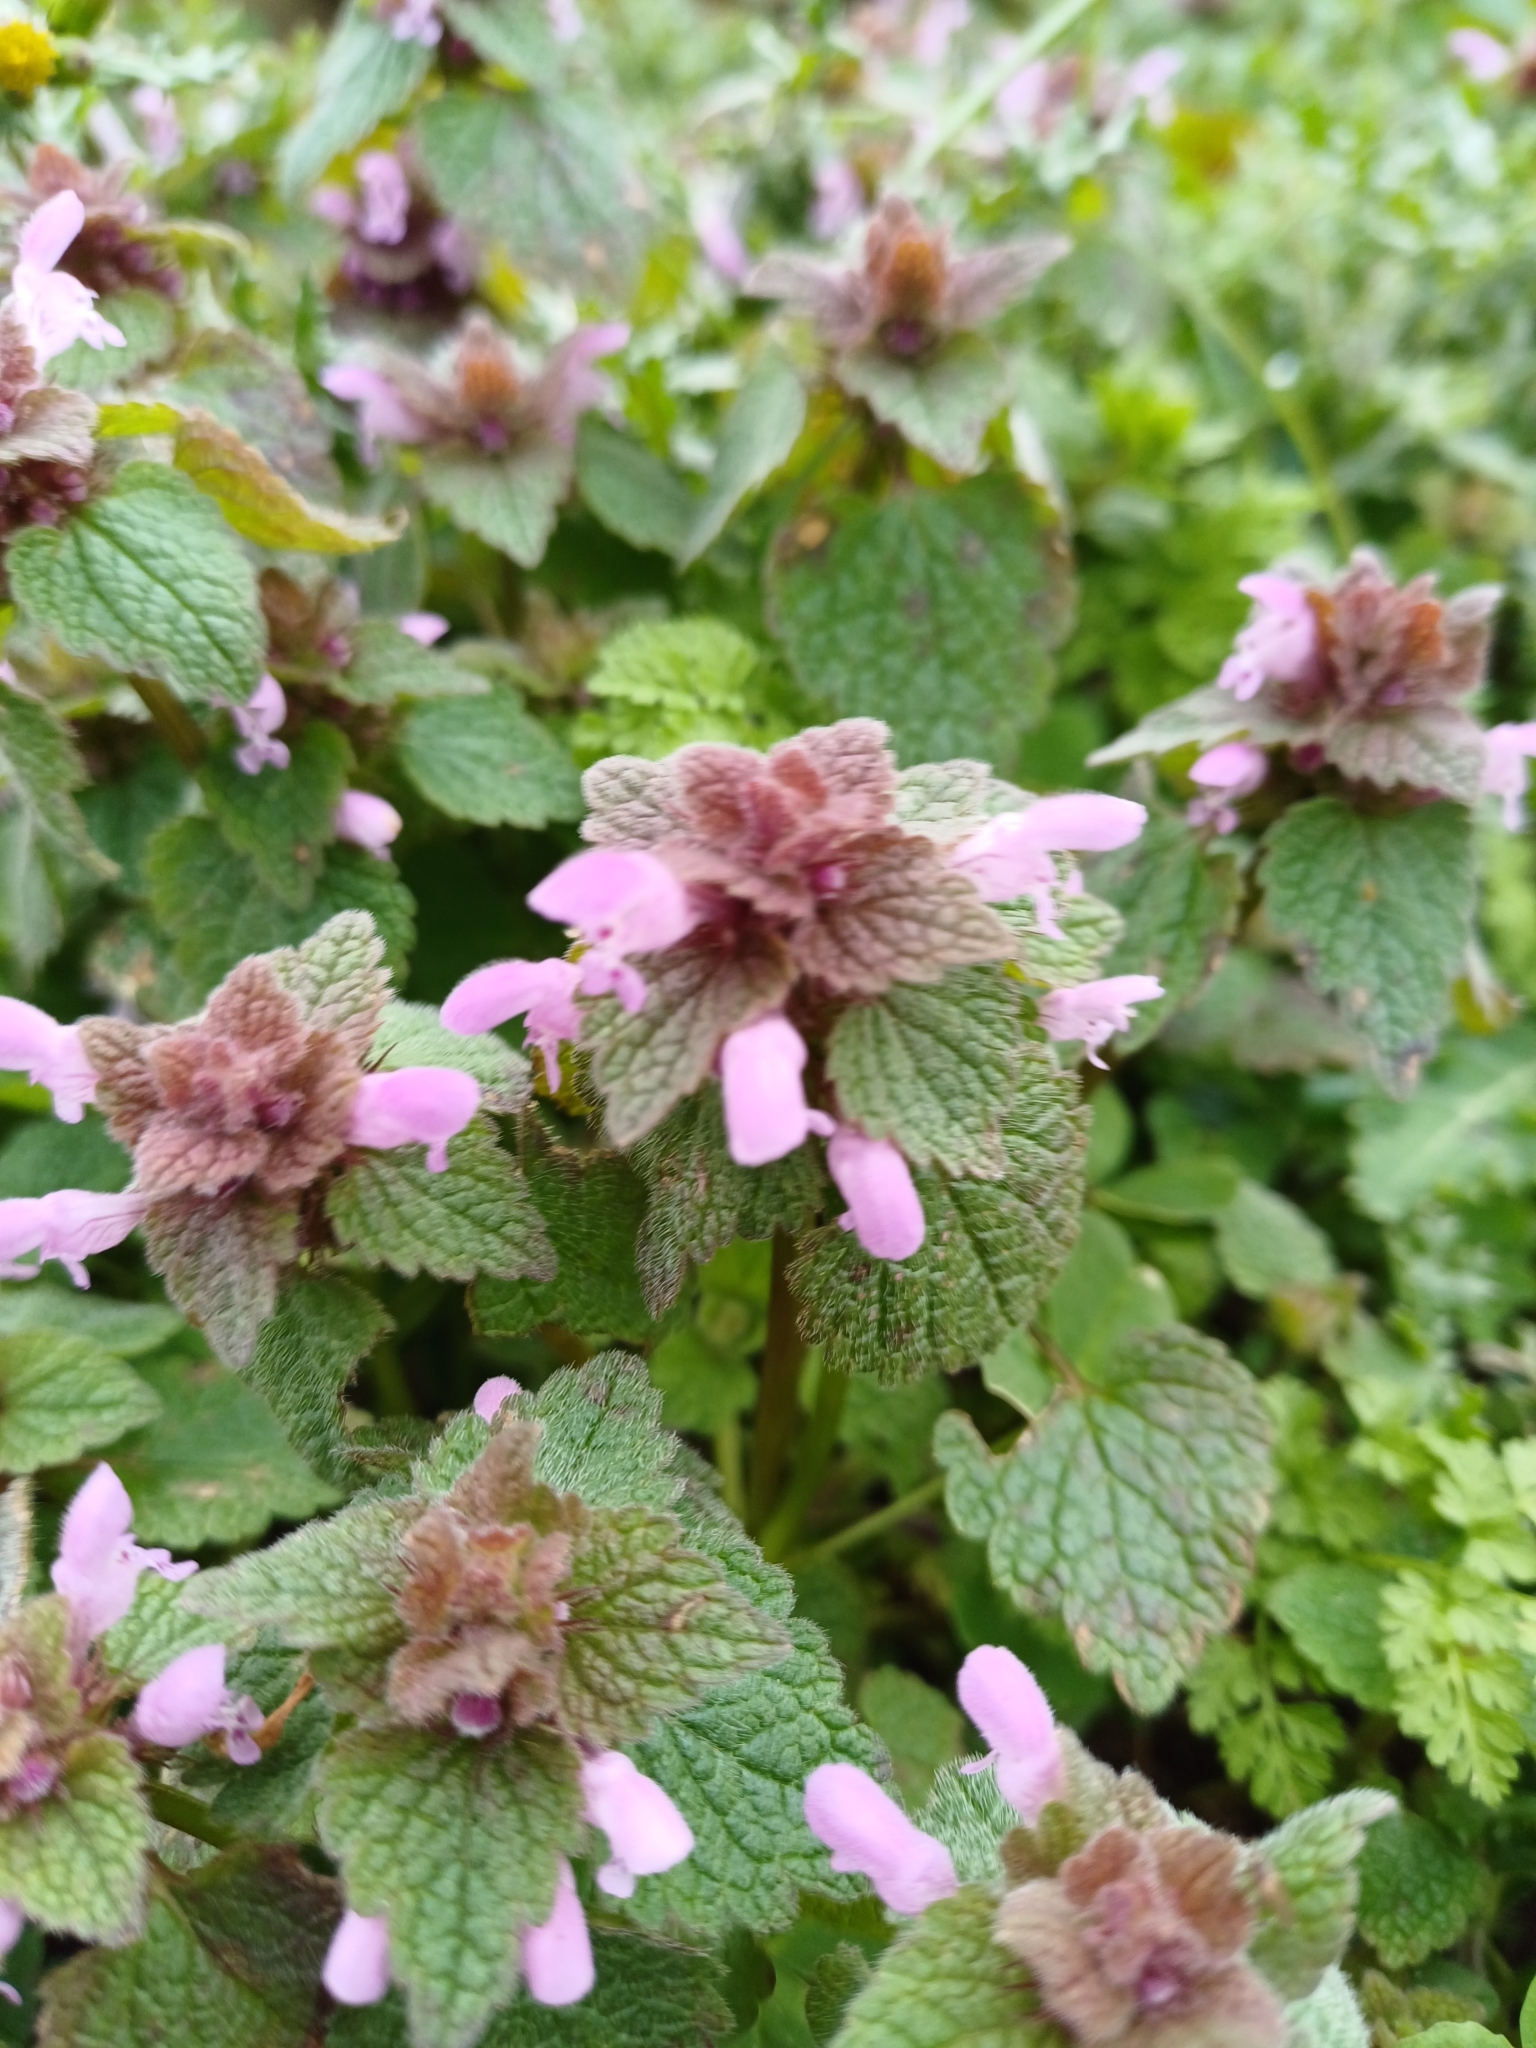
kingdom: Plantae
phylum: Tracheophyta
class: Magnoliopsida
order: Lamiales
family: Lamiaceae
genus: Lamium
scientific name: Lamium purpureum
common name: Red dead-nettle
